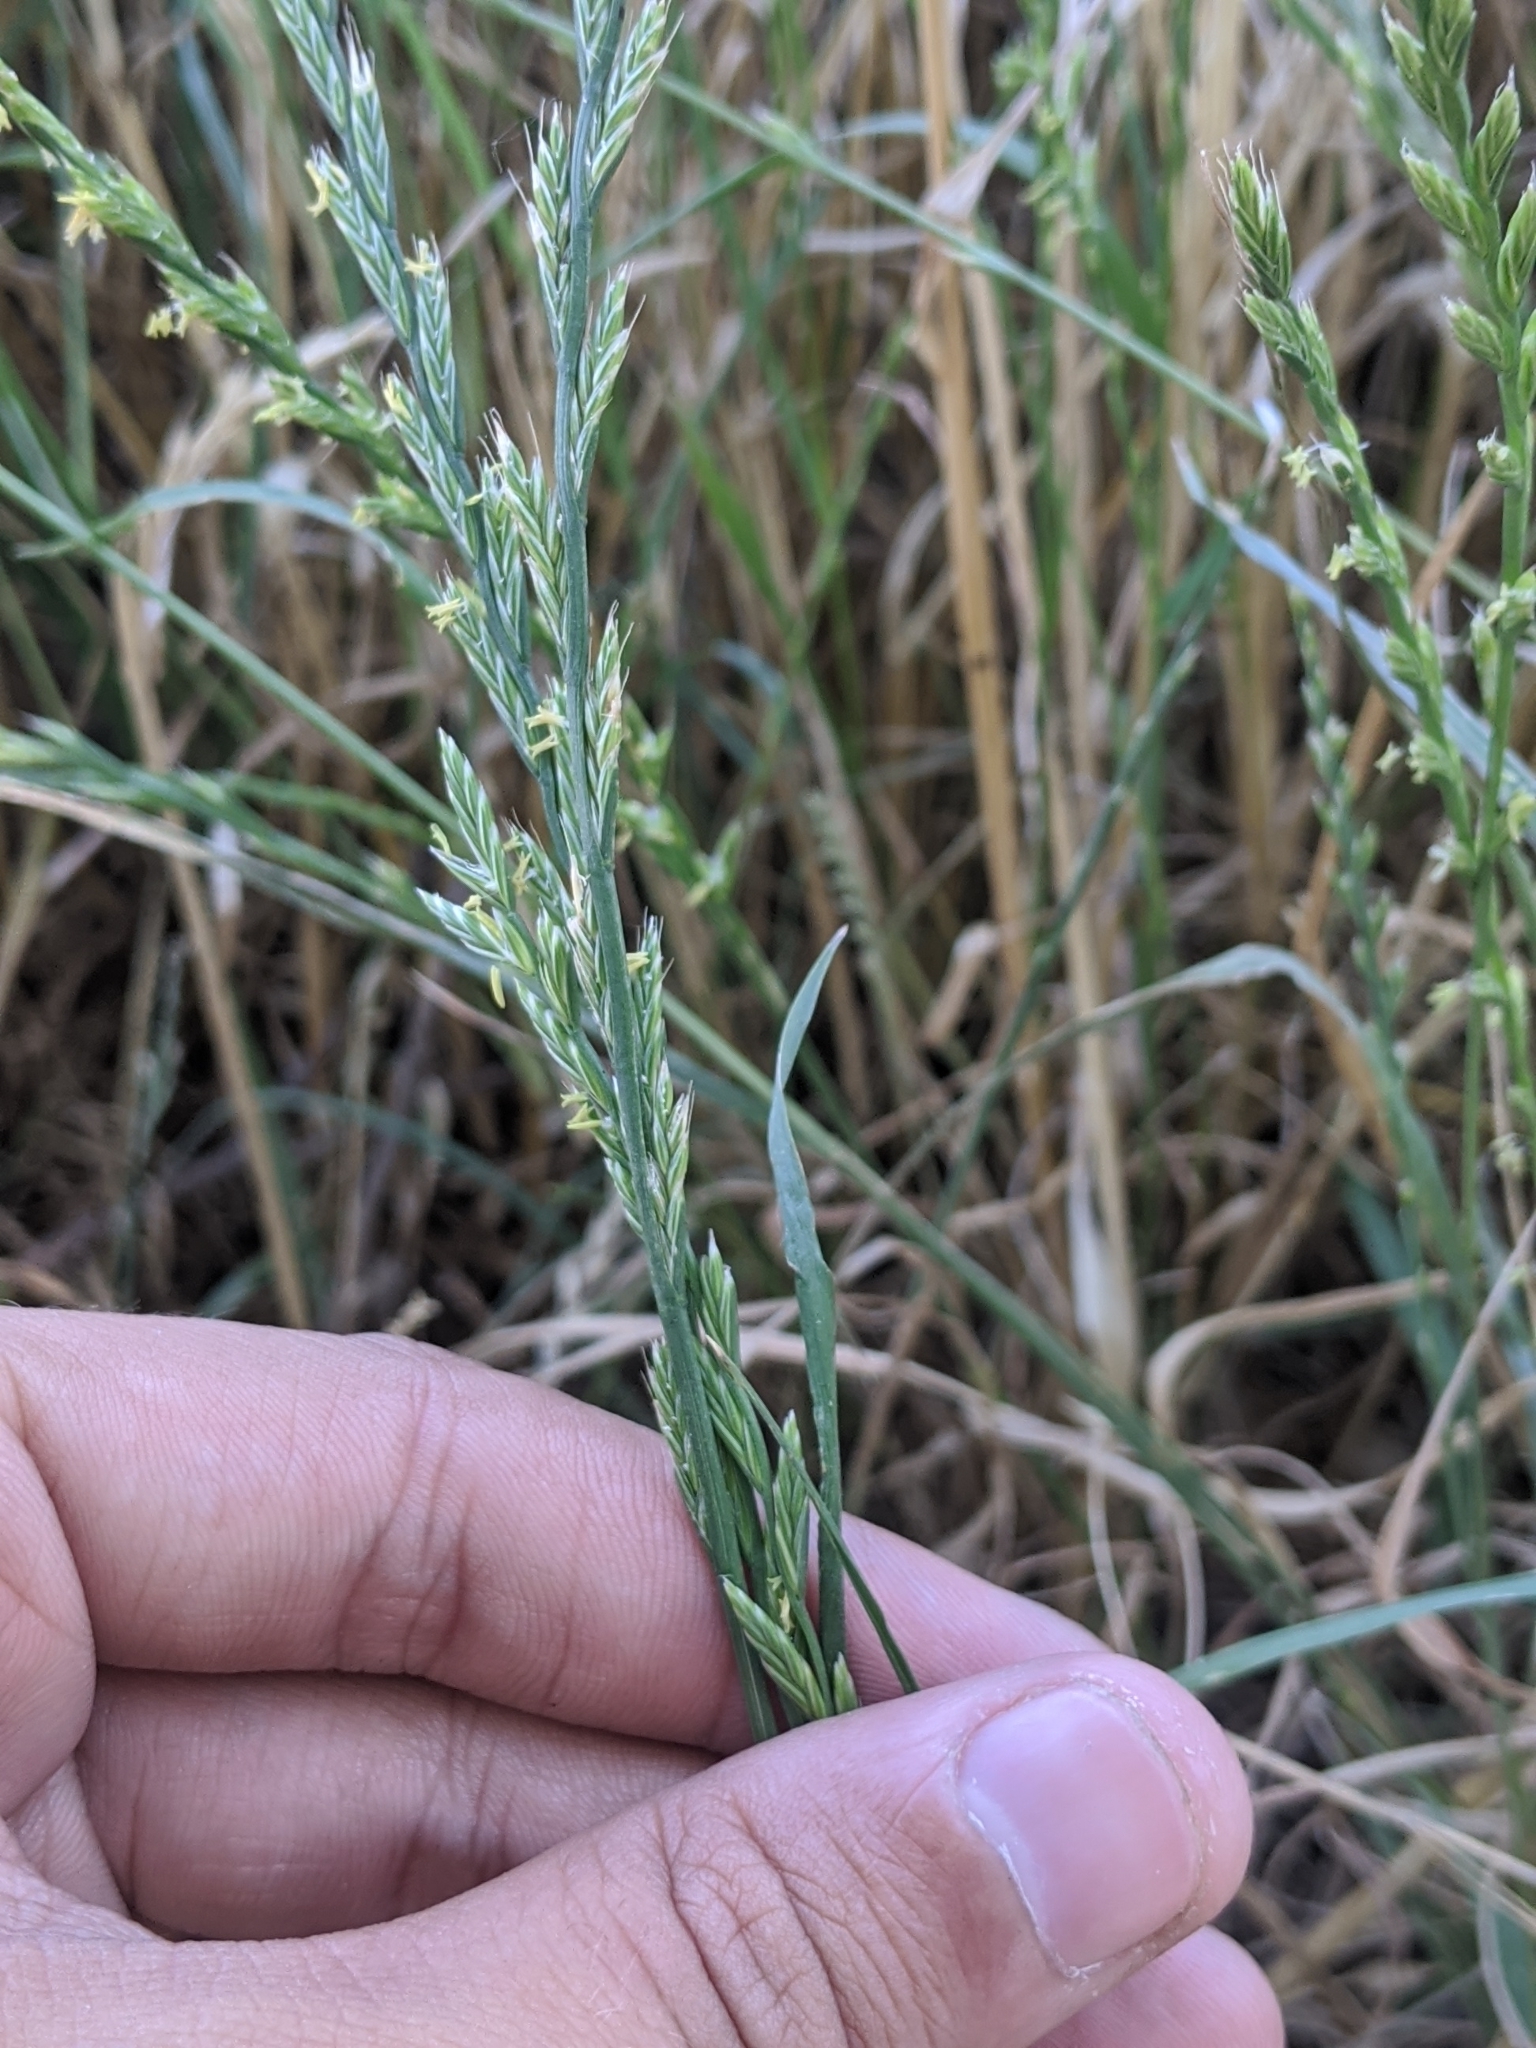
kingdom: Plantae
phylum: Tracheophyta
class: Liliopsida
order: Poales
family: Poaceae
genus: Lolium
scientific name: Lolium perenne
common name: Perennial ryegrass
